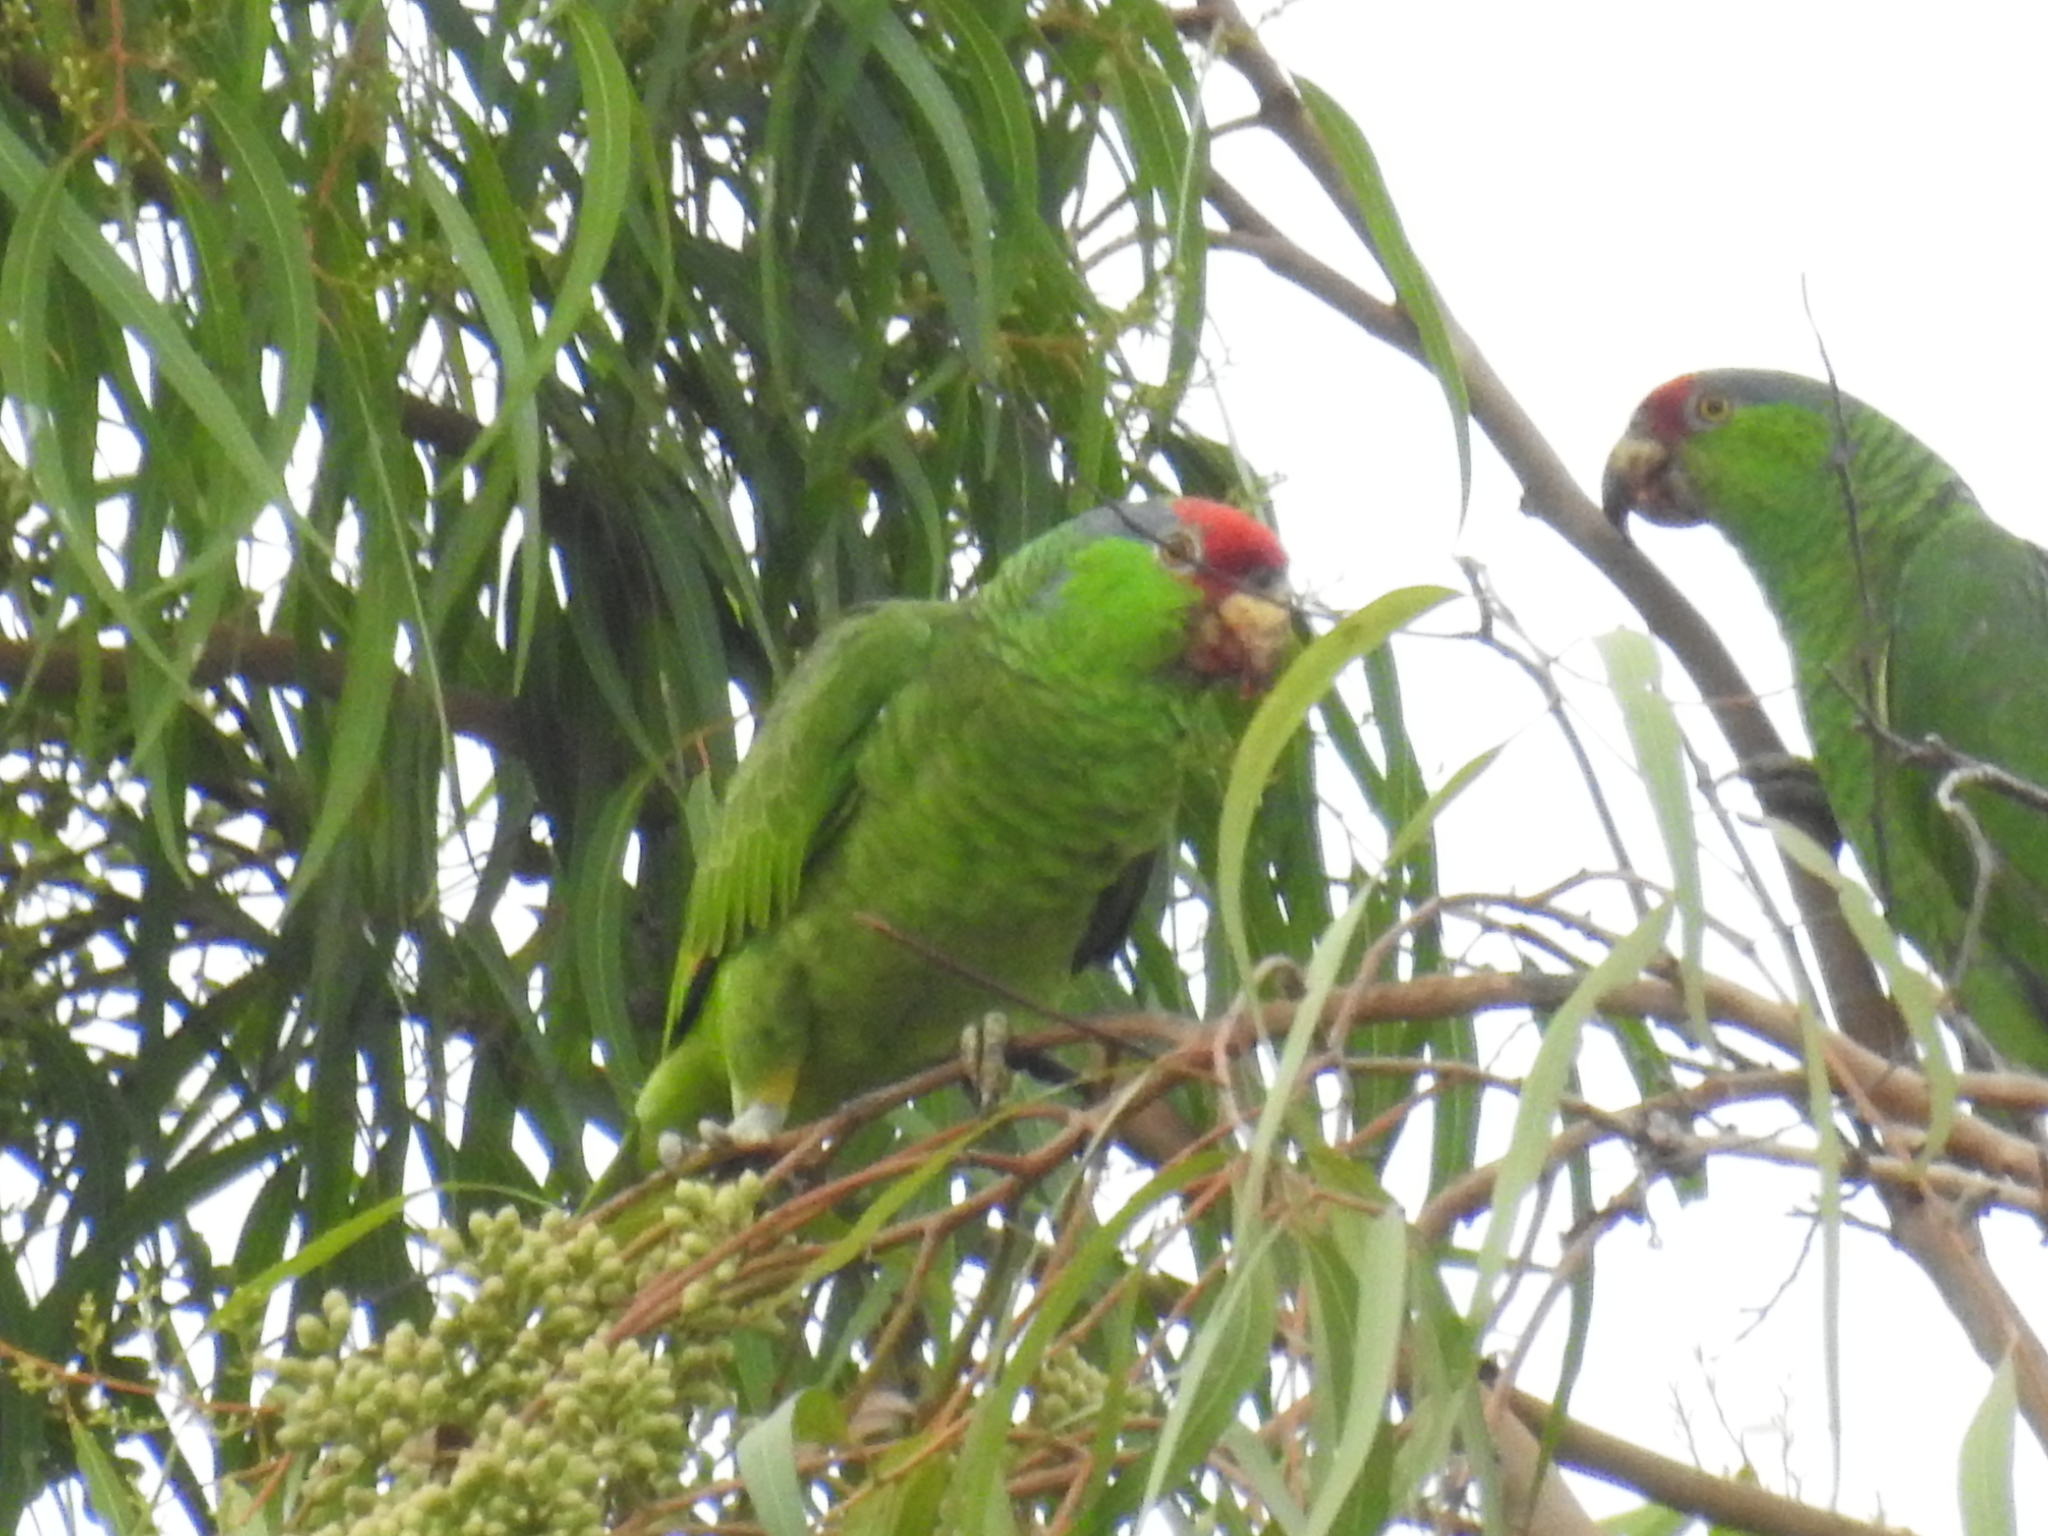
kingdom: Animalia
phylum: Chordata
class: Aves
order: Psittaciformes
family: Psittacidae
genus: Amazona
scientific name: Amazona viridigenalis
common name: Red-crowned amazon
